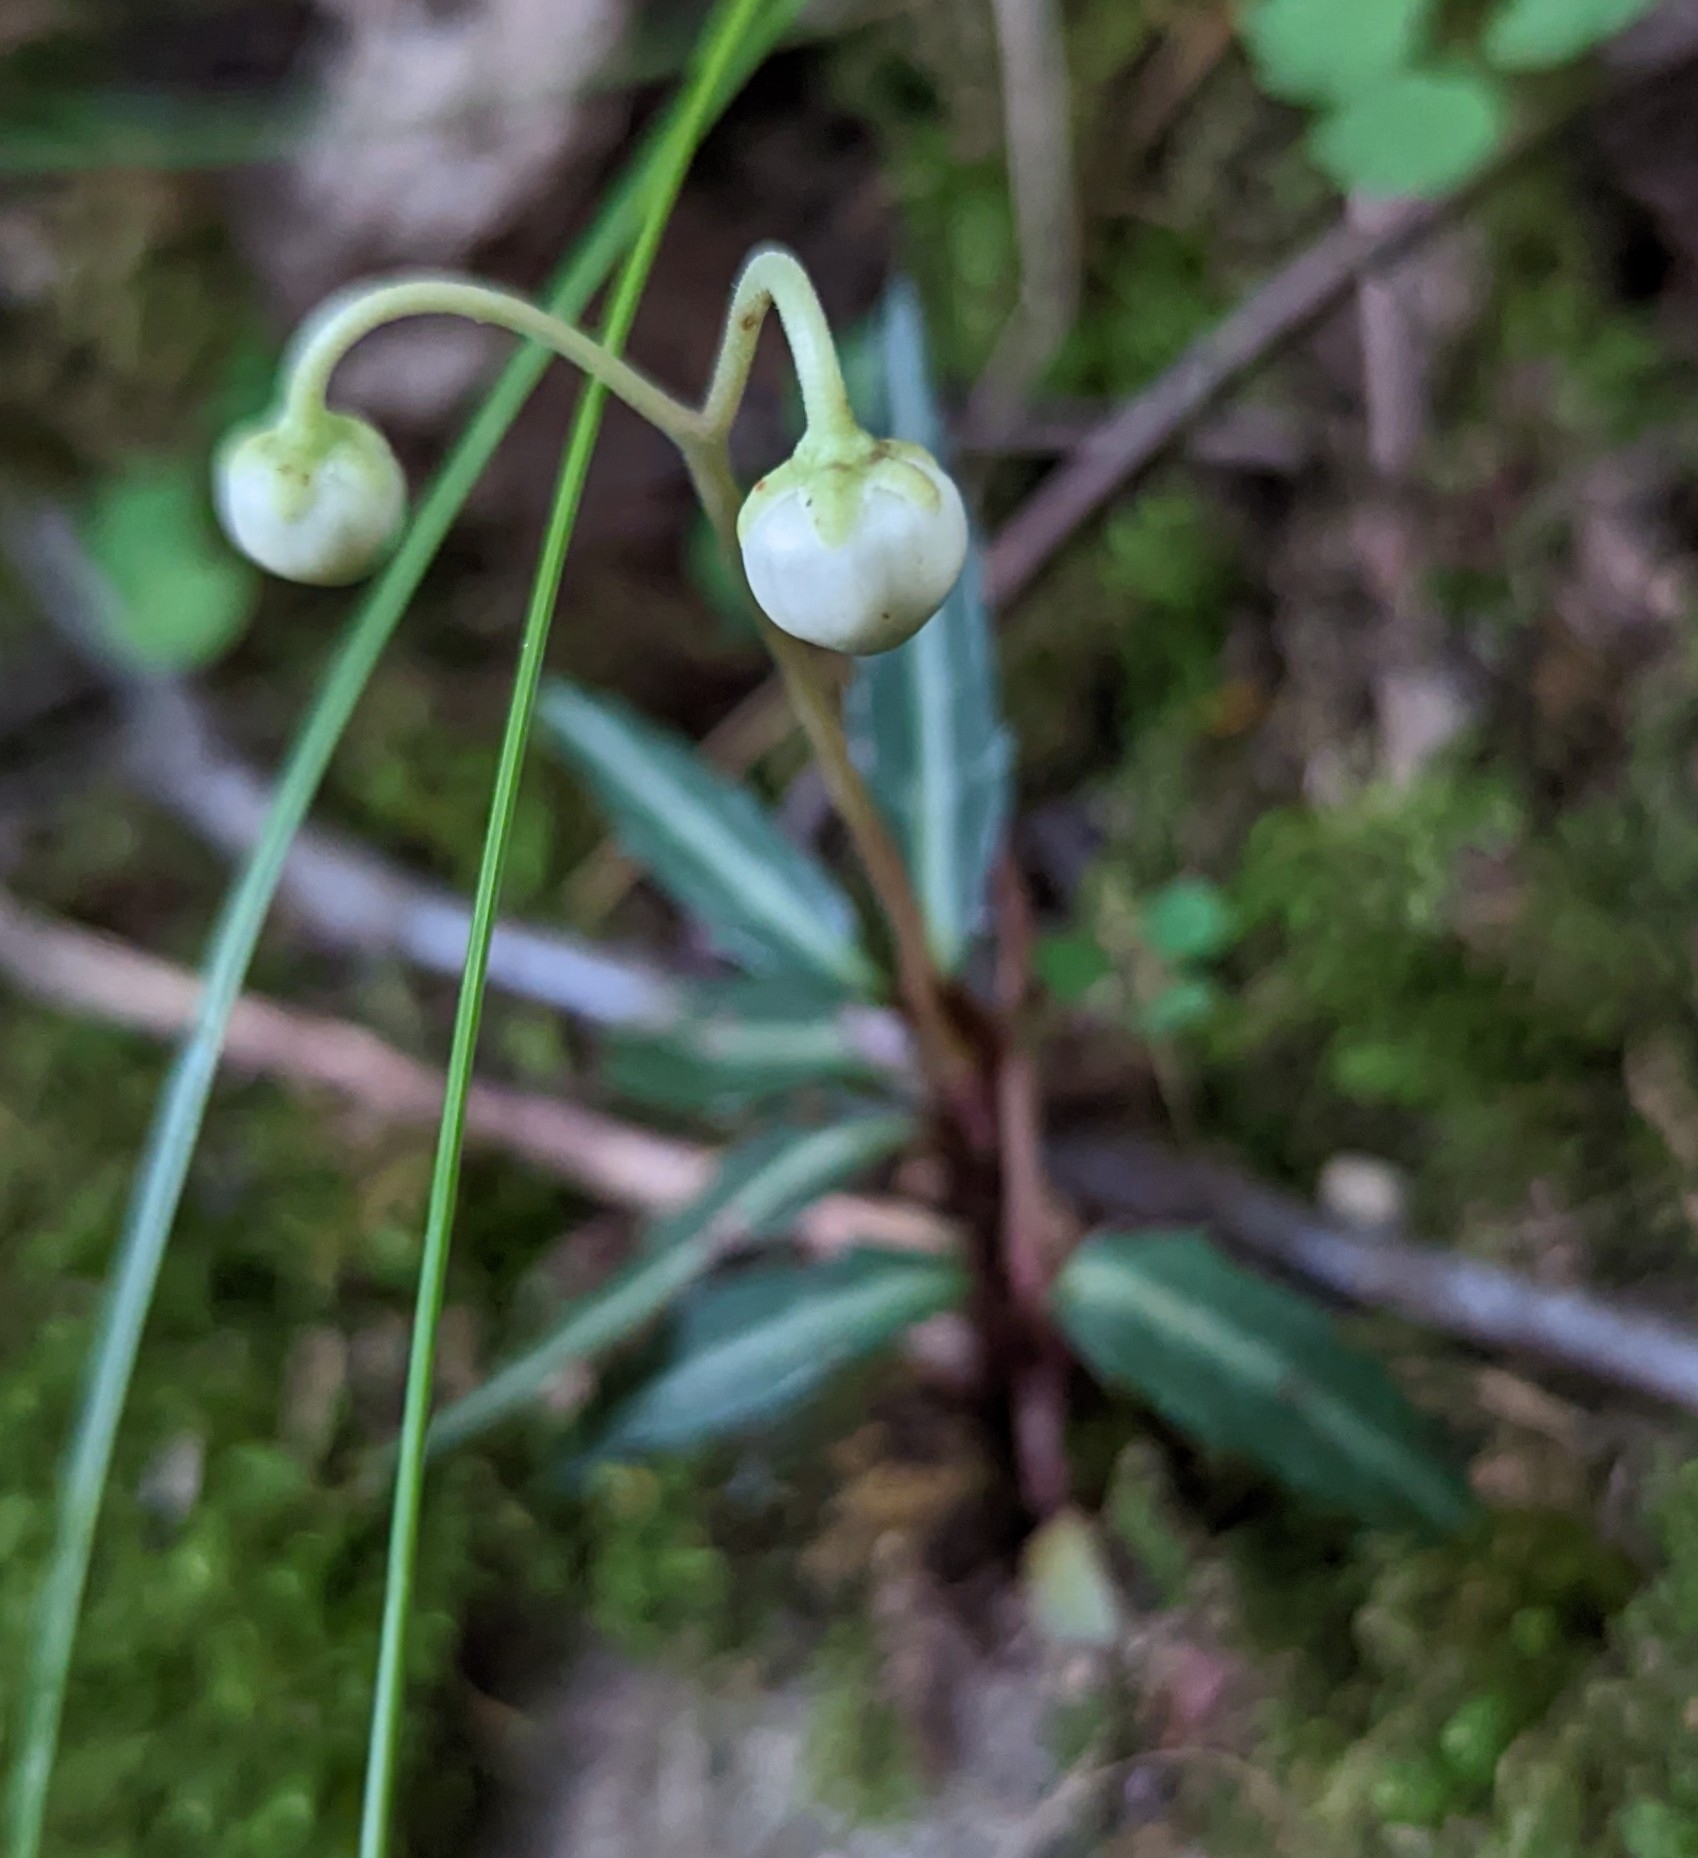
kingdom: Plantae
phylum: Tracheophyta
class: Magnoliopsida
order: Ericales
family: Ericaceae
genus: Chimaphila
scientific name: Chimaphila maculata
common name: Spotted pipsissewa
